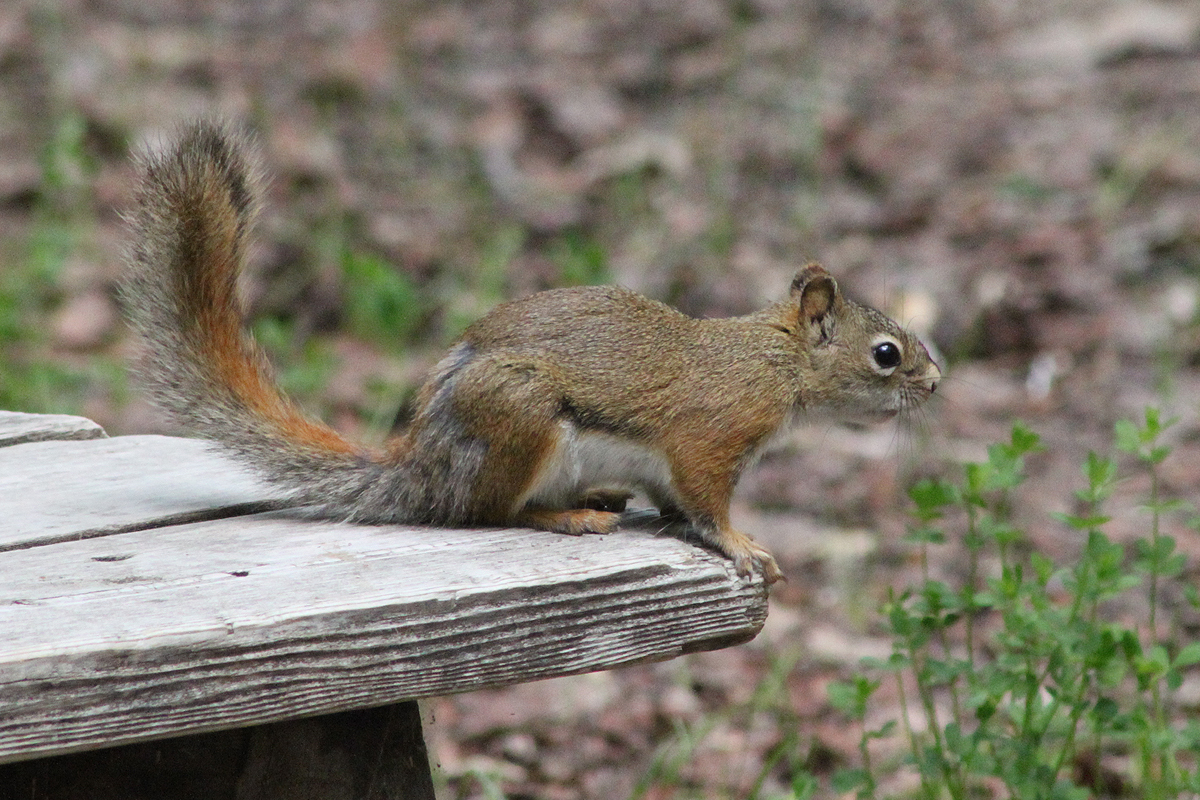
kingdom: Animalia
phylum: Chordata
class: Mammalia
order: Rodentia
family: Sciuridae
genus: Tamiasciurus
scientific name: Tamiasciurus hudsonicus
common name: Red squirrel
